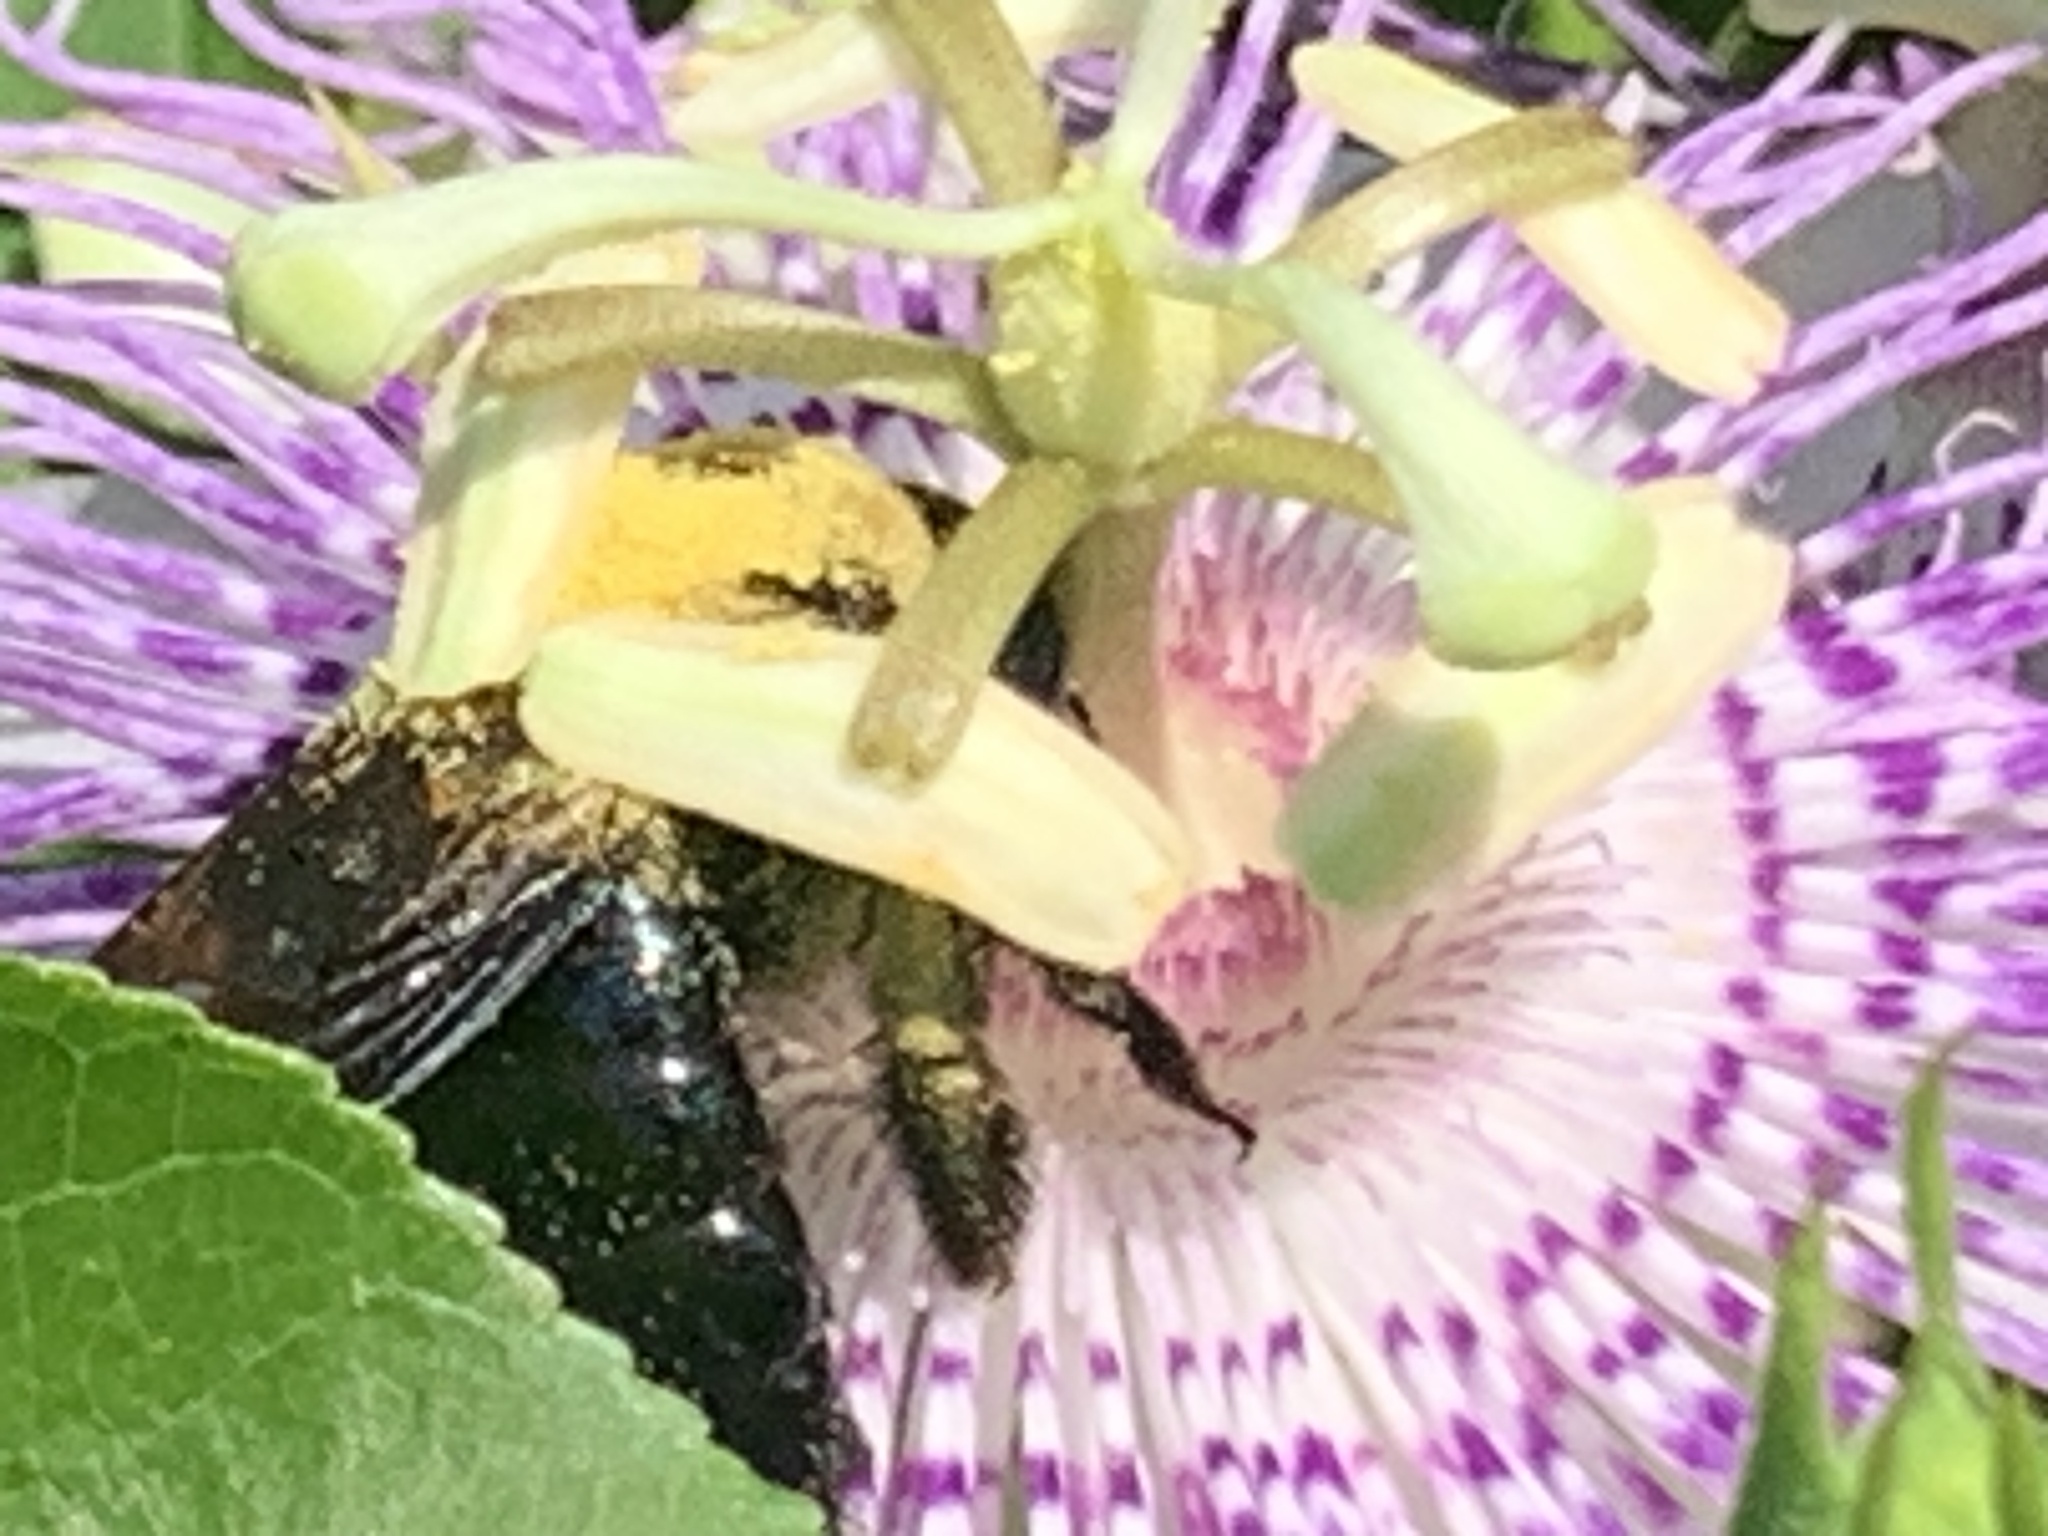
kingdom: Animalia
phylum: Arthropoda
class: Insecta
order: Hymenoptera
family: Apidae
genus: Xylocopa
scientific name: Xylocopa virginica
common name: Carpenter bee
